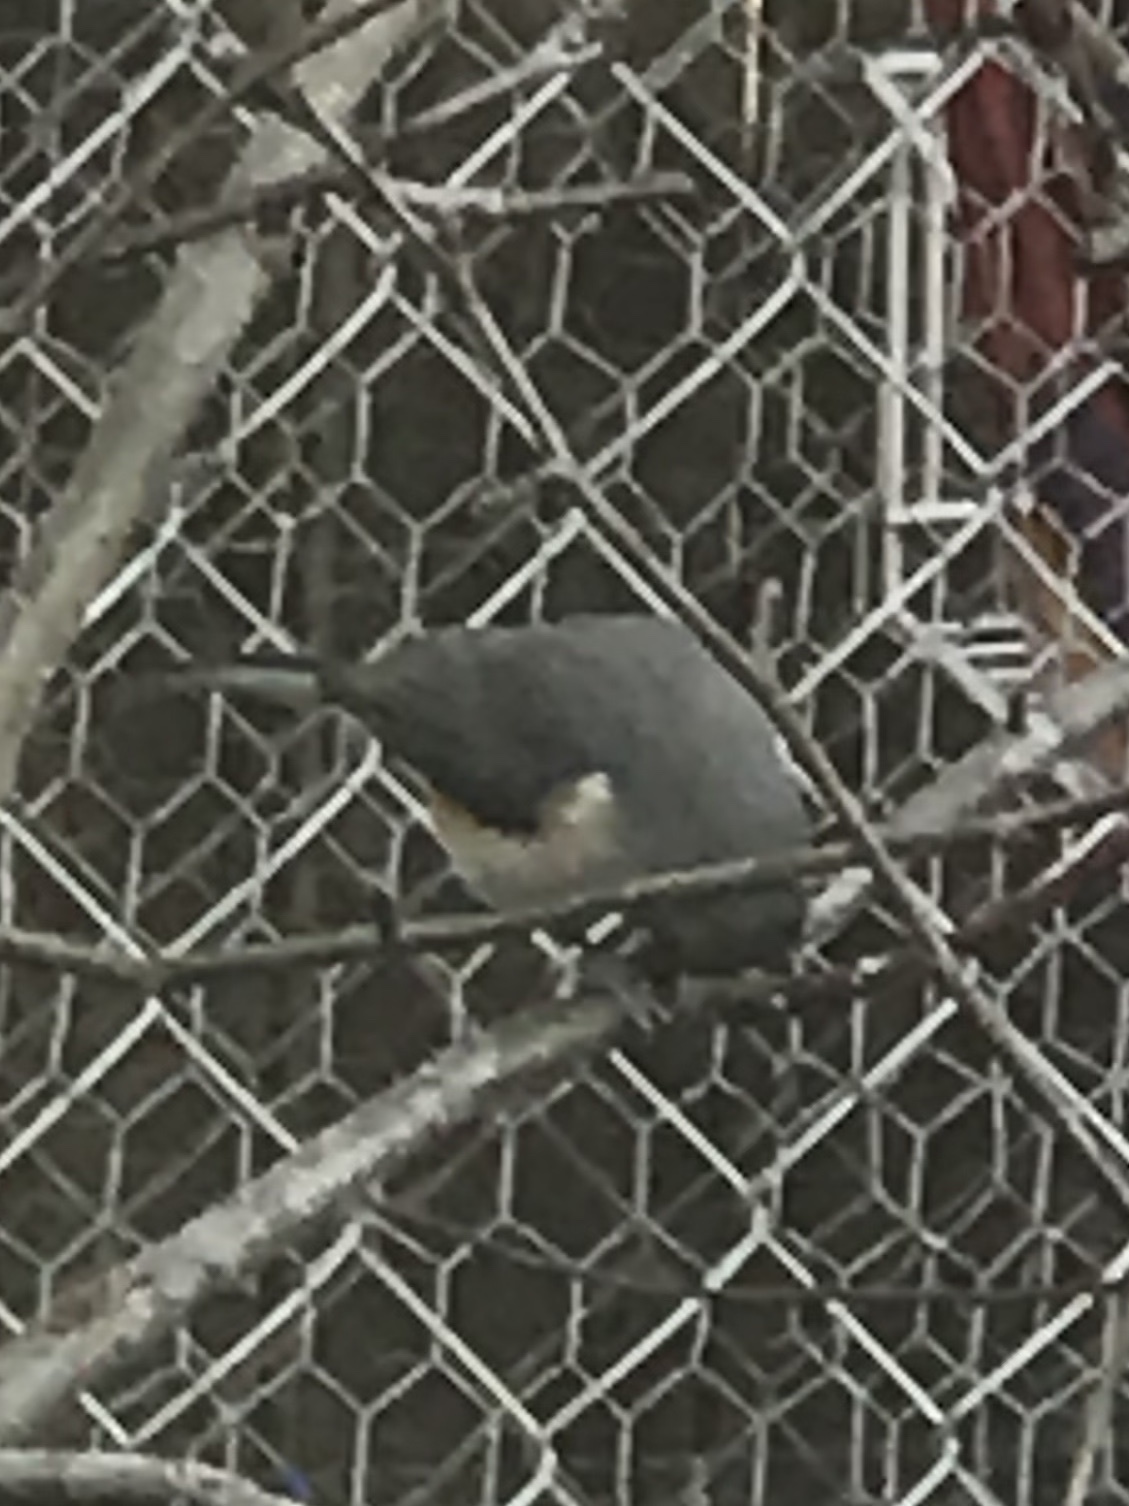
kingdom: Animalia
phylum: Chordata
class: Aves
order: Passeriformes
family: Paridae
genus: Baeolophus
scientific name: Baeolophus bicolor
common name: Tufted titmouse
